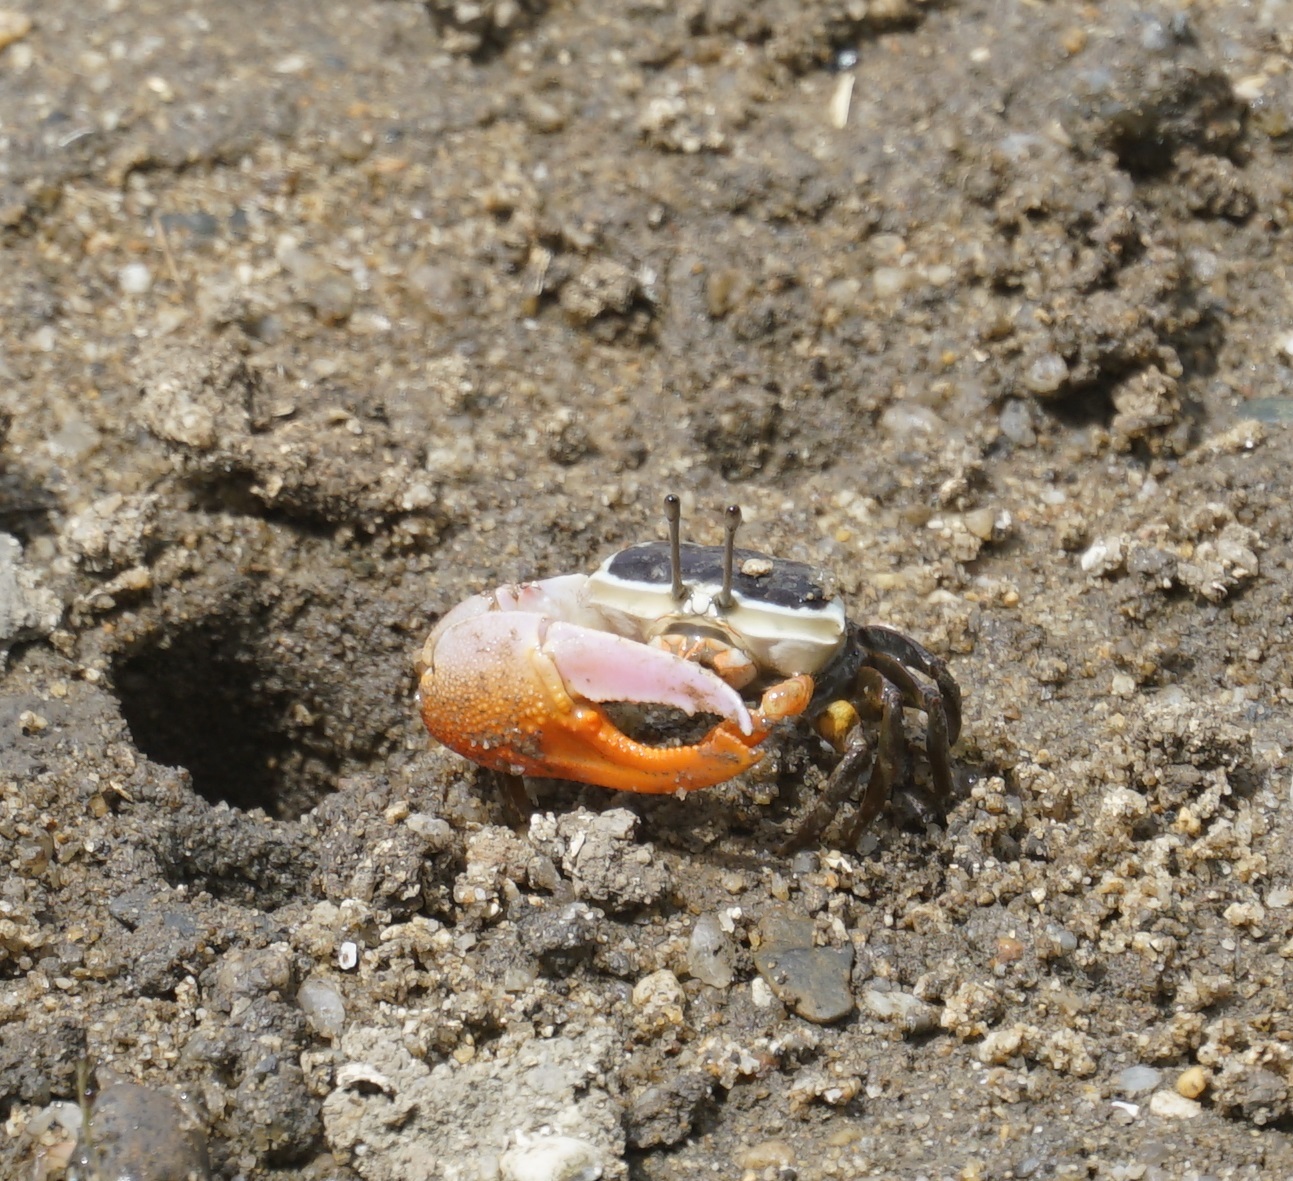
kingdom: Animalia
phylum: Arthropoda
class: Malacostraca
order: Decapoda
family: Ocypodidae
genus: Gelasimus
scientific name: Gelasimus vomeris
